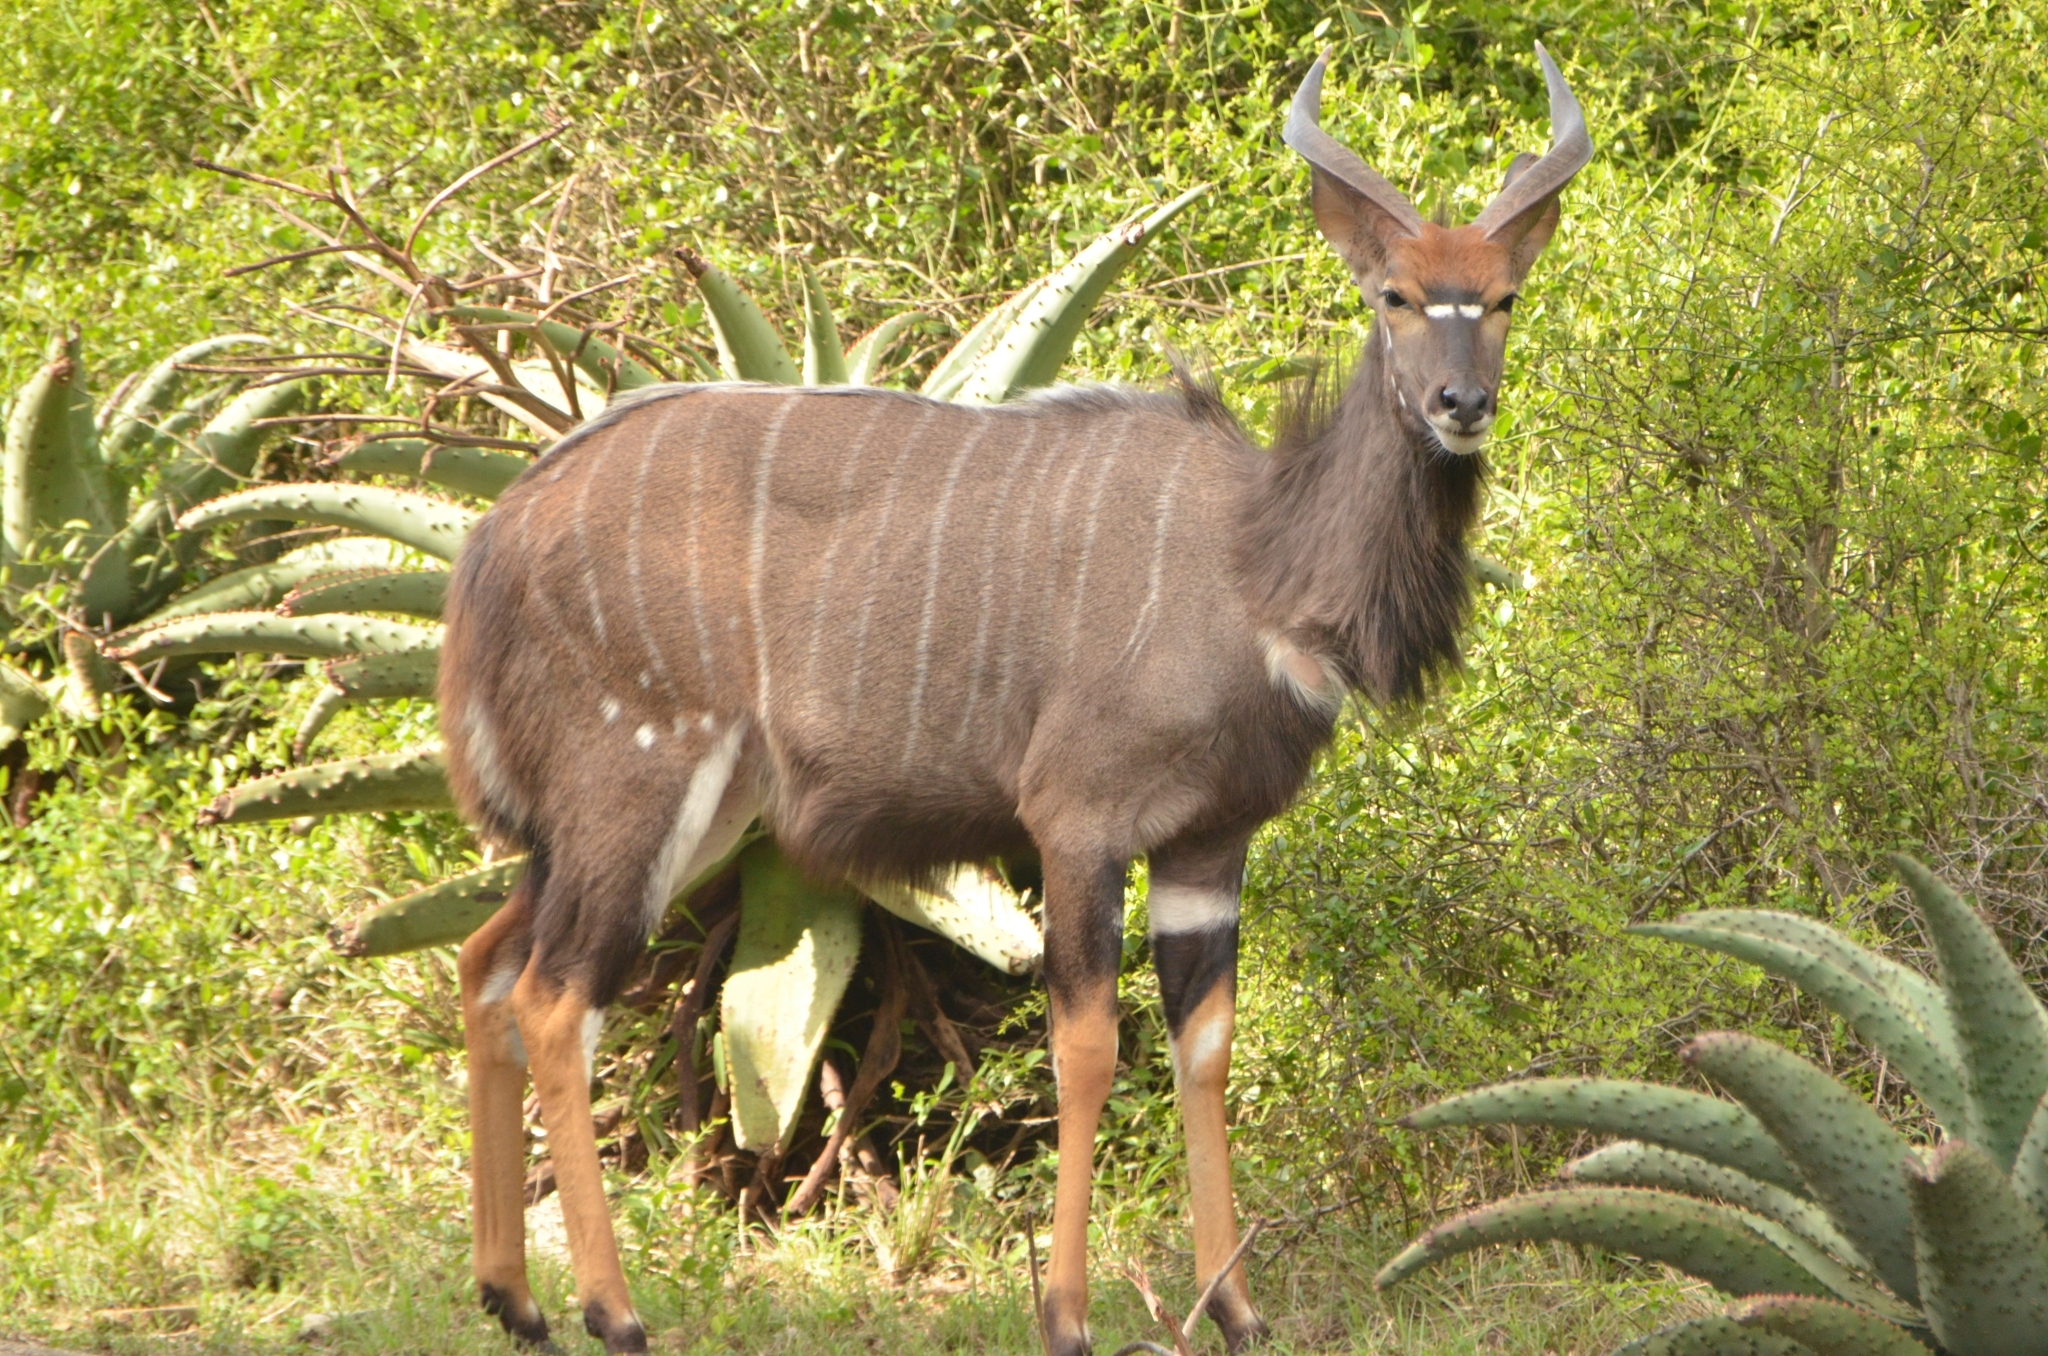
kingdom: Animalia
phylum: Chordata
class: Mammalia
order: Artiodactyla
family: Bovidae
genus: Tragelaphus
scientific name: Tragelaphus angasii
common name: Nyala
